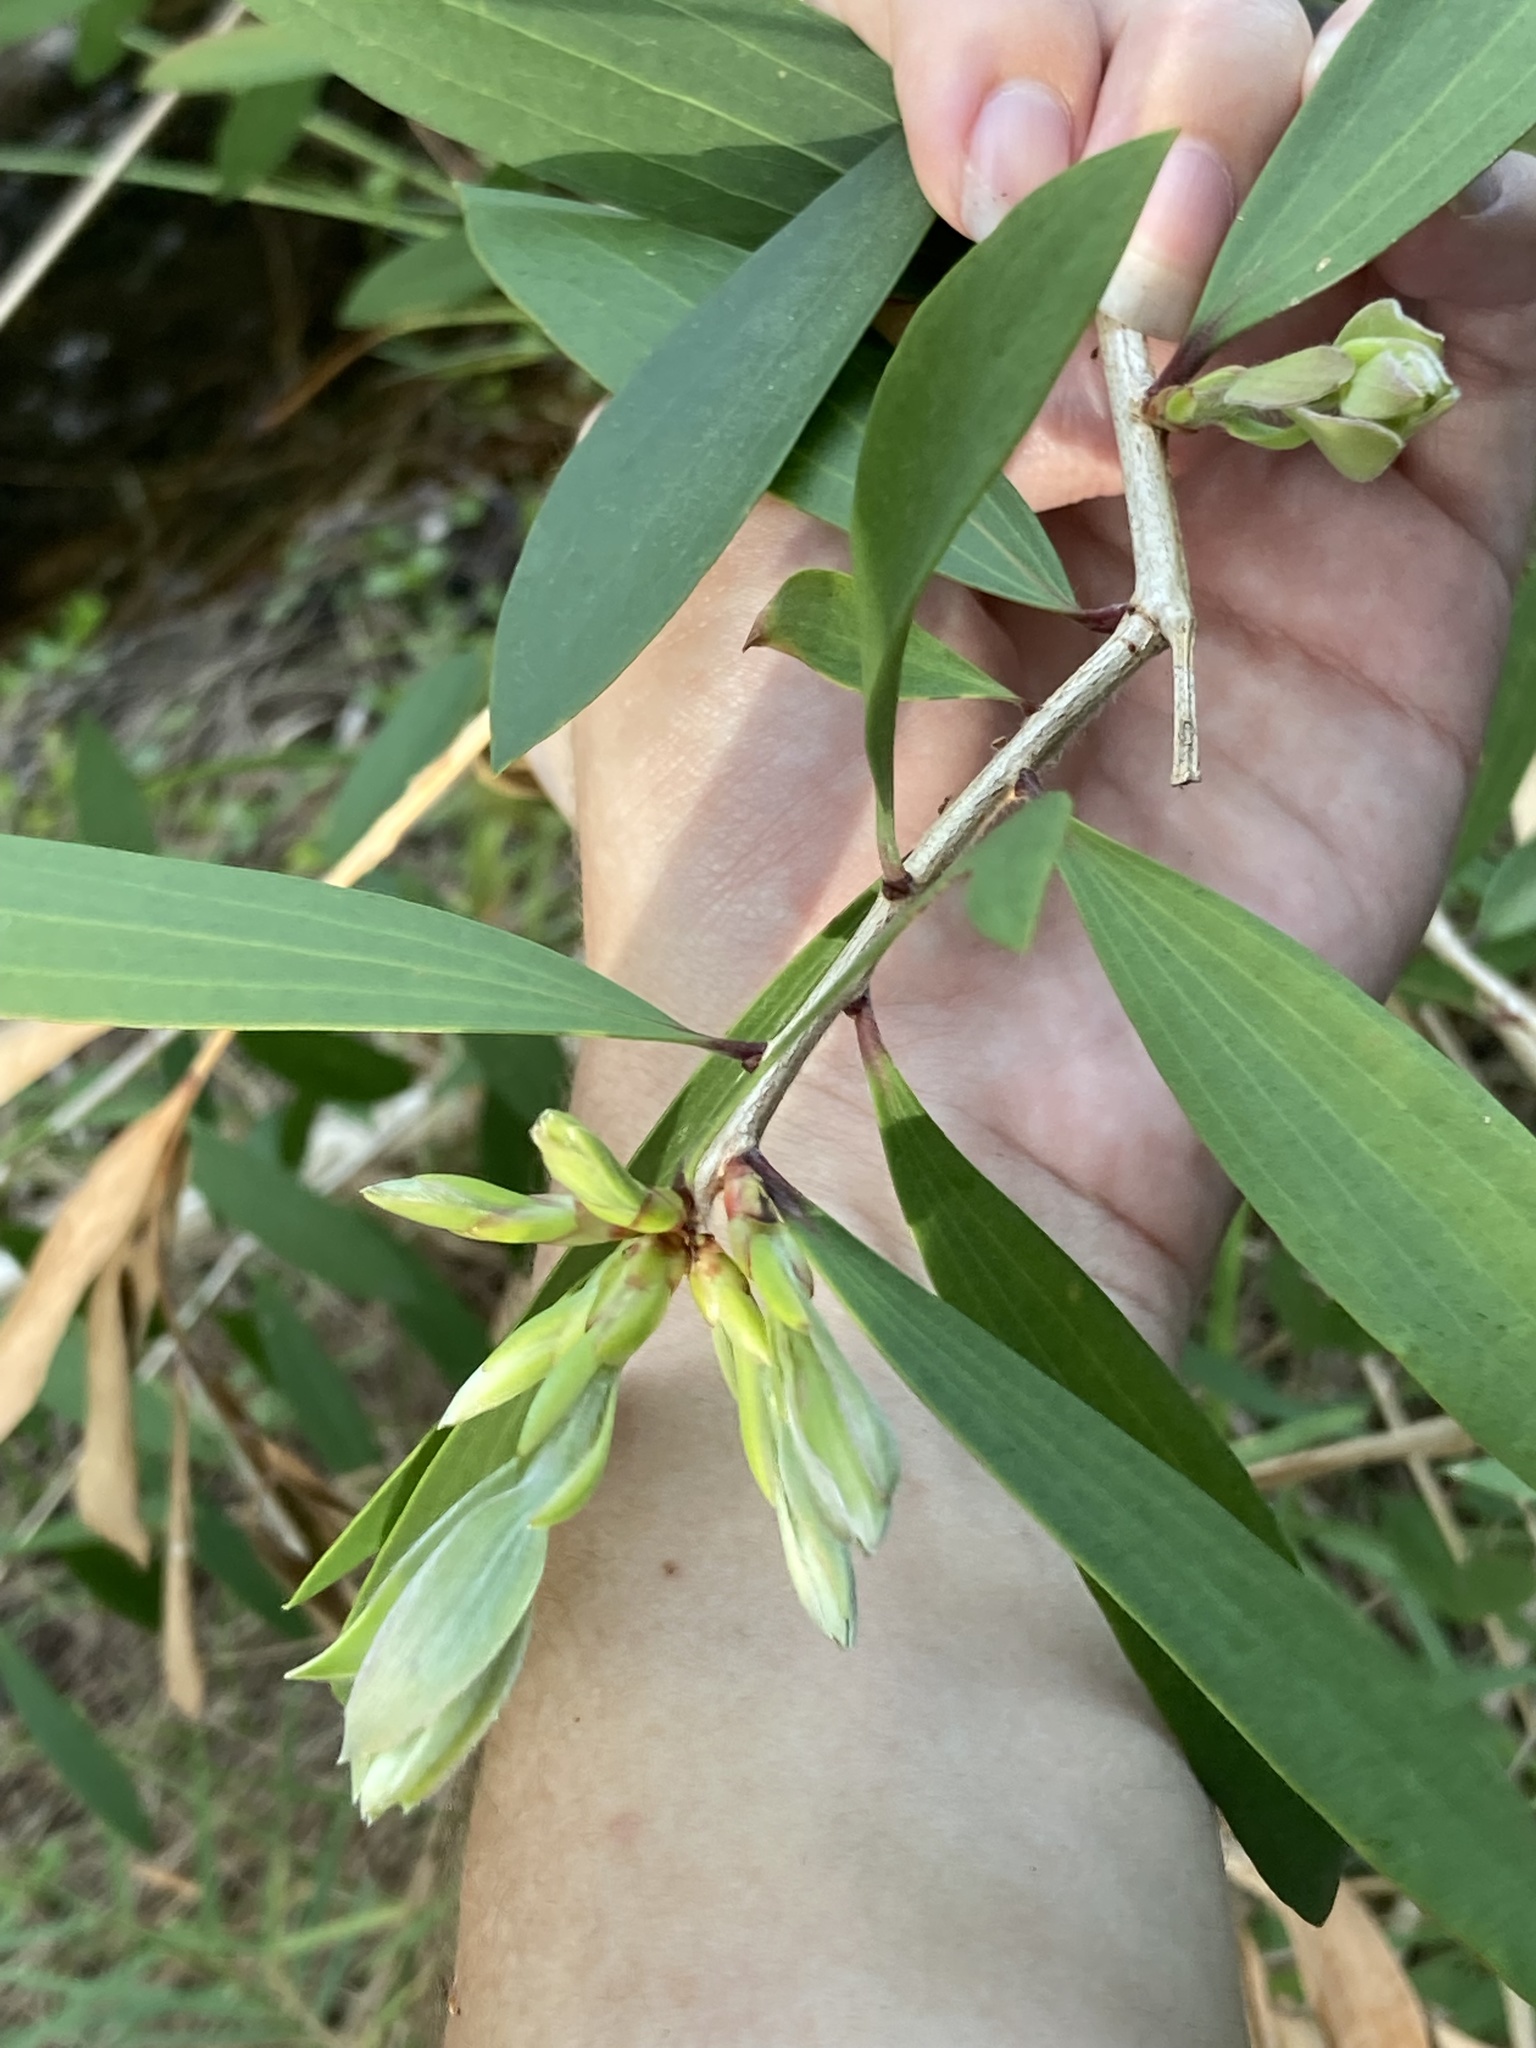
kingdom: Plantae
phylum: Tracheophyta
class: Magnoliopsida
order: Myrtales
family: Myrtaceae
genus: Melaleuca
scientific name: Melaleuca quinquenervia
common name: Punktree
